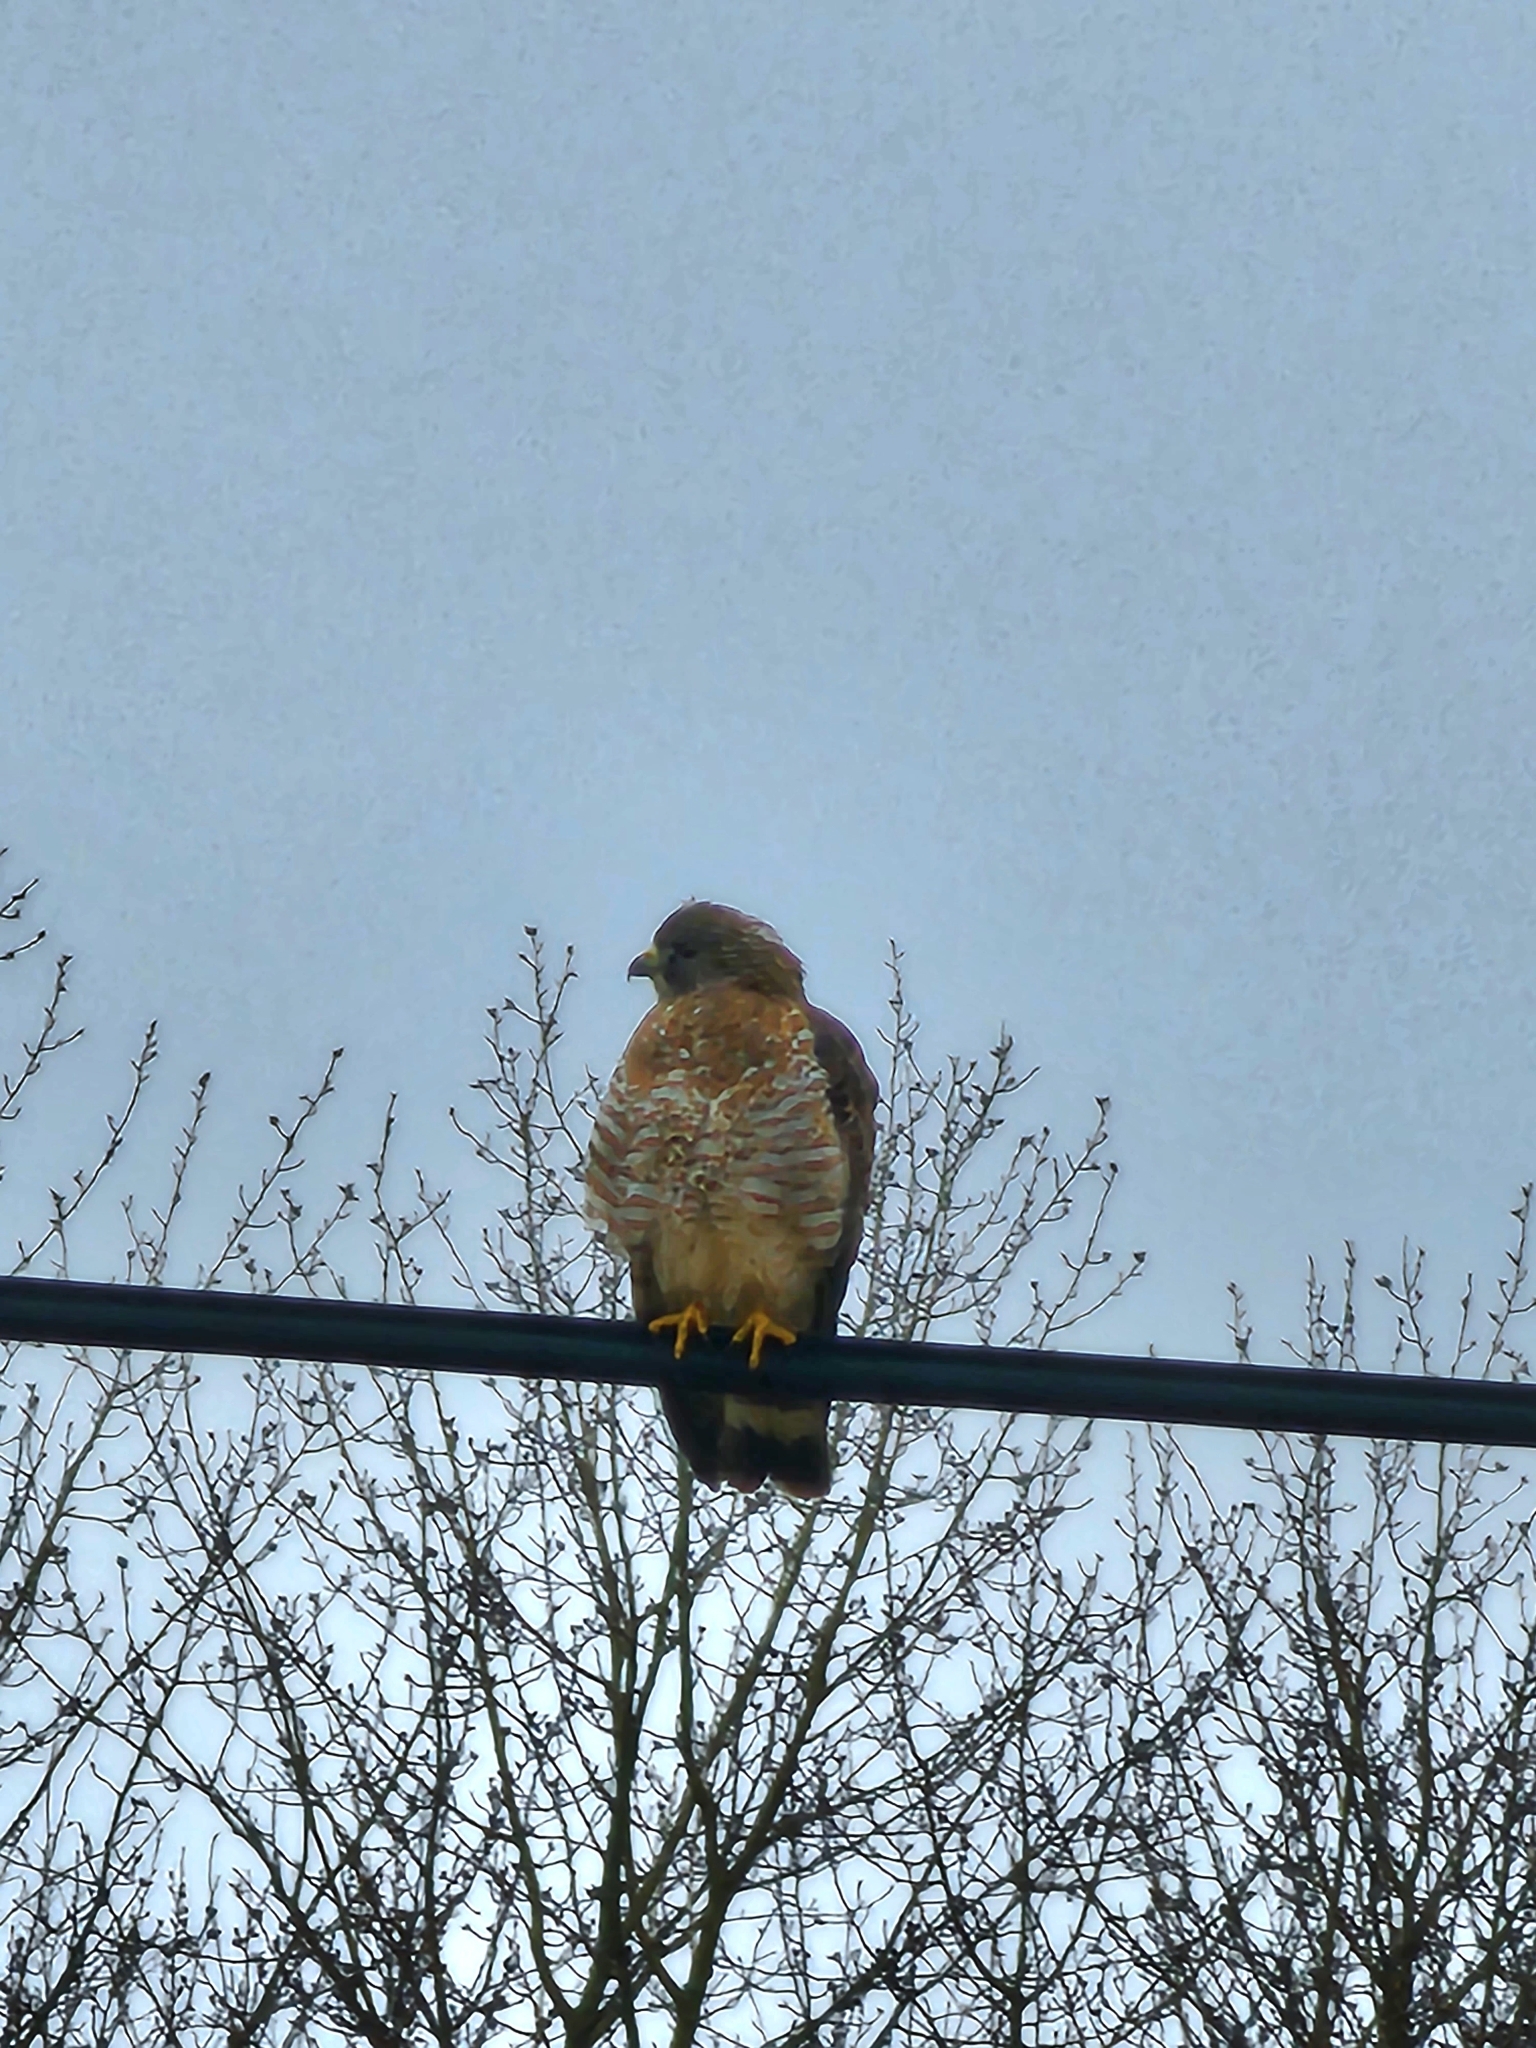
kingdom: Animalia
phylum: Chordata
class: Aves
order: Accipitriformes
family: Accipitridae
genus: Buteo
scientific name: Buteo platypterus
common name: Broad-winged hawk
